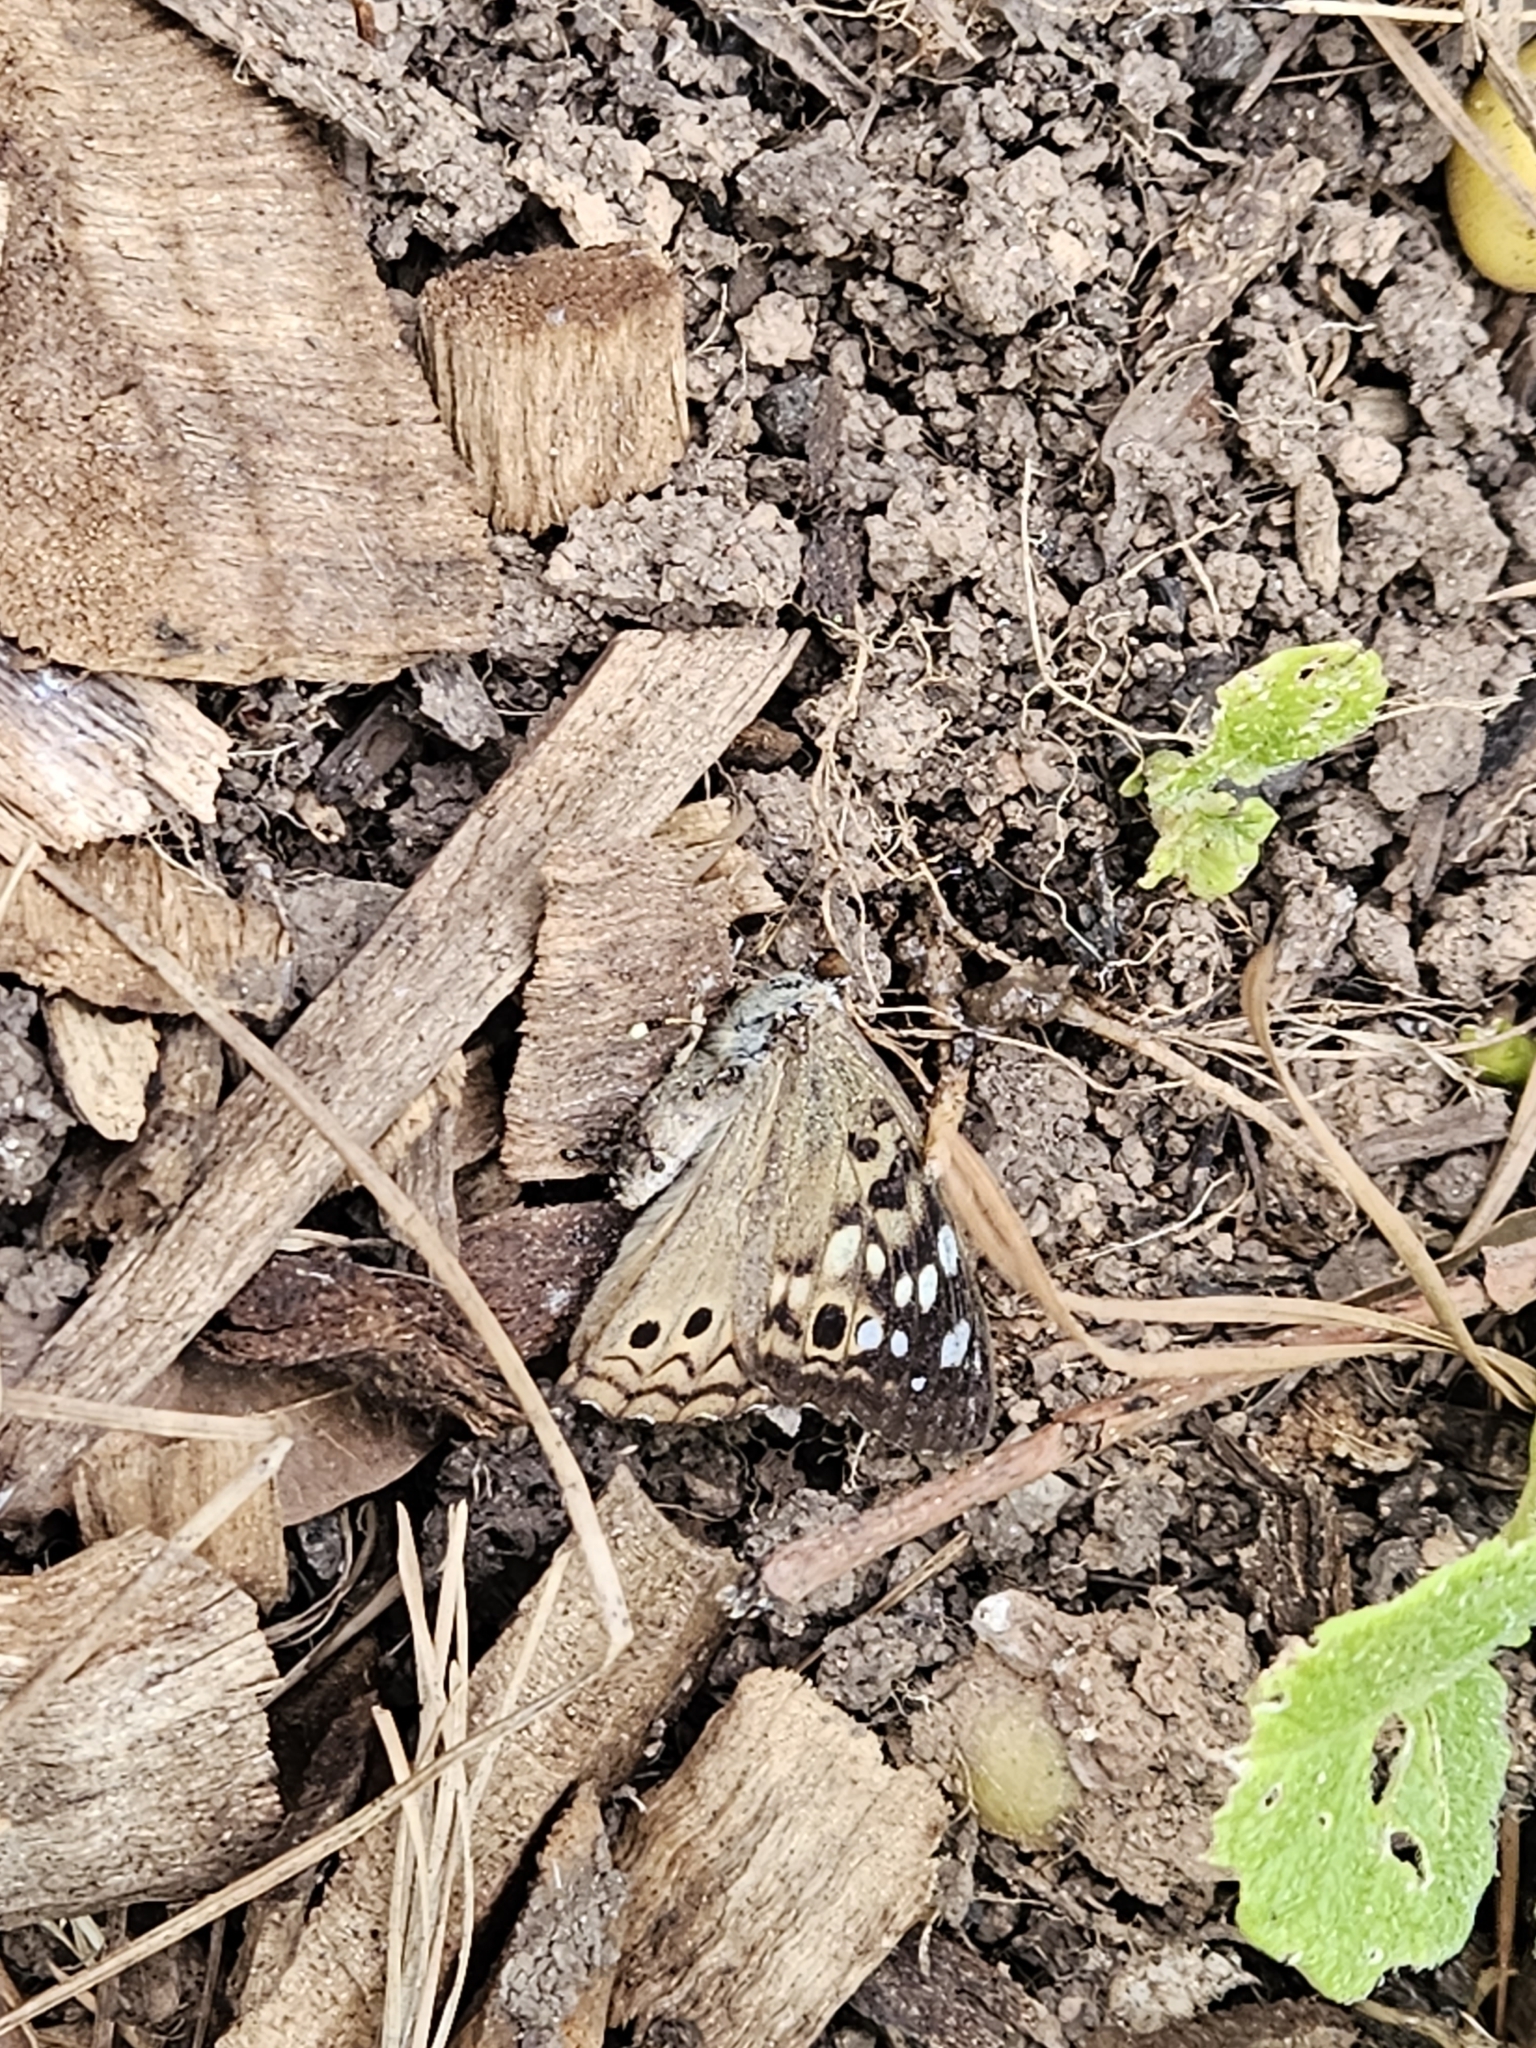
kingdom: Animalia
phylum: Arthropoda
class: Insecta
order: Lepidoptera
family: Nymphalidae
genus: Asterocampa
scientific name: Asterocampa celtis
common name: Hackberry emperor
